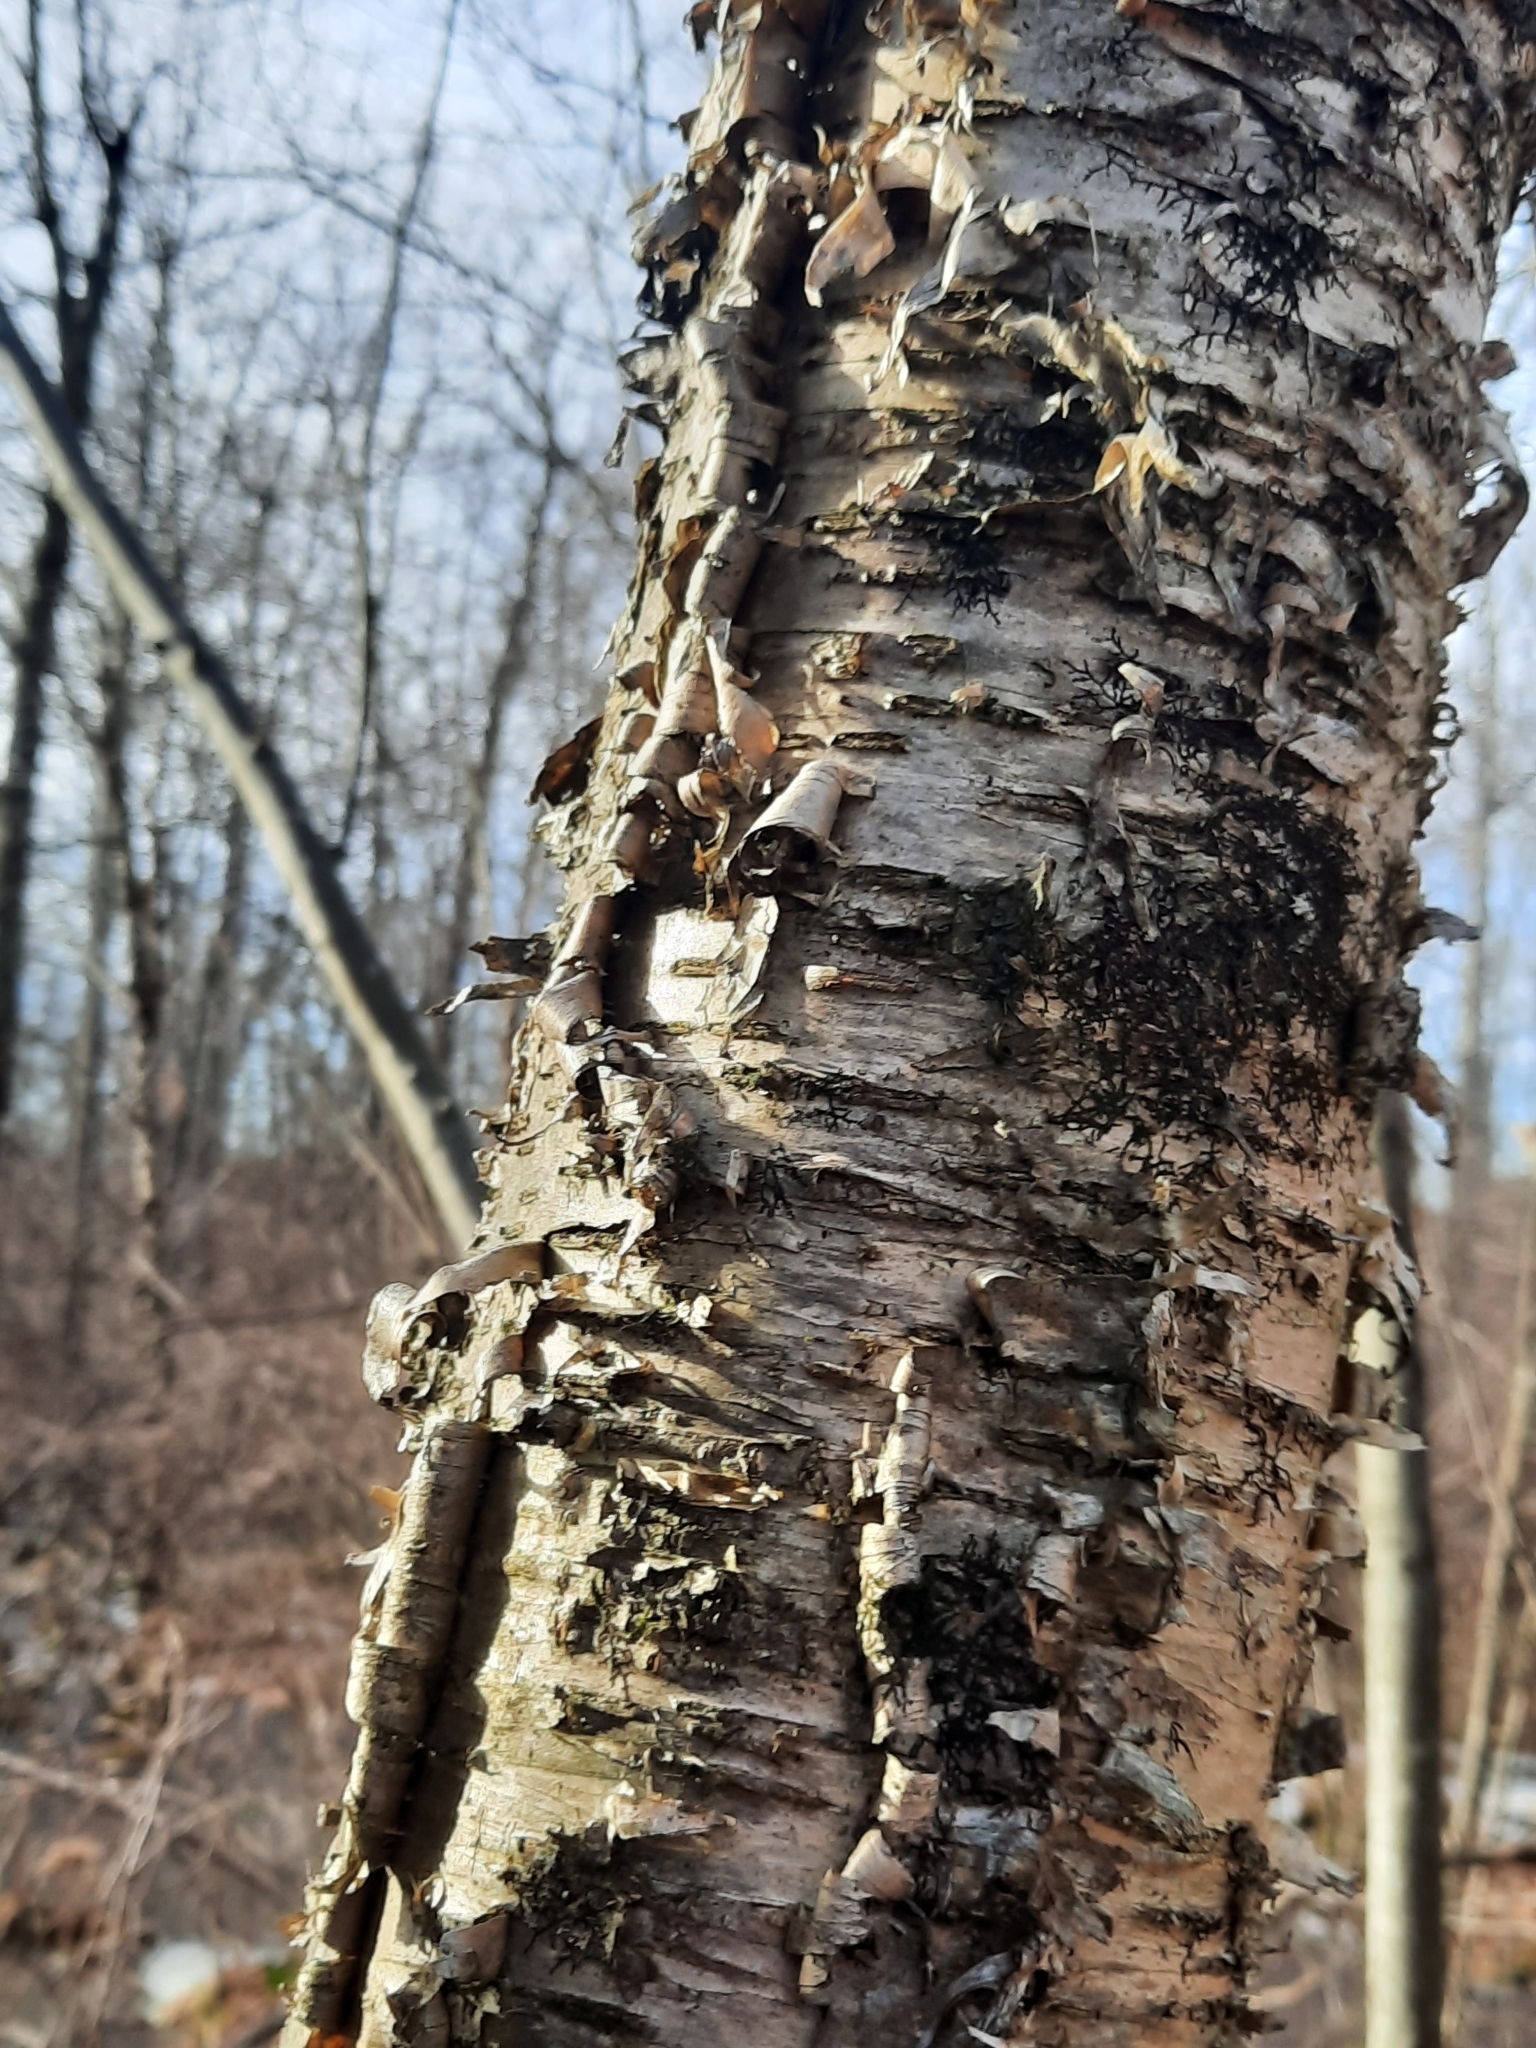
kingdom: Plantae
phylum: Tracheophyta
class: Magnoliopsida
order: Fagales
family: Betulaceae
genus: Betula
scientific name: Betula alleghaniensis
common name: Yellow birch
